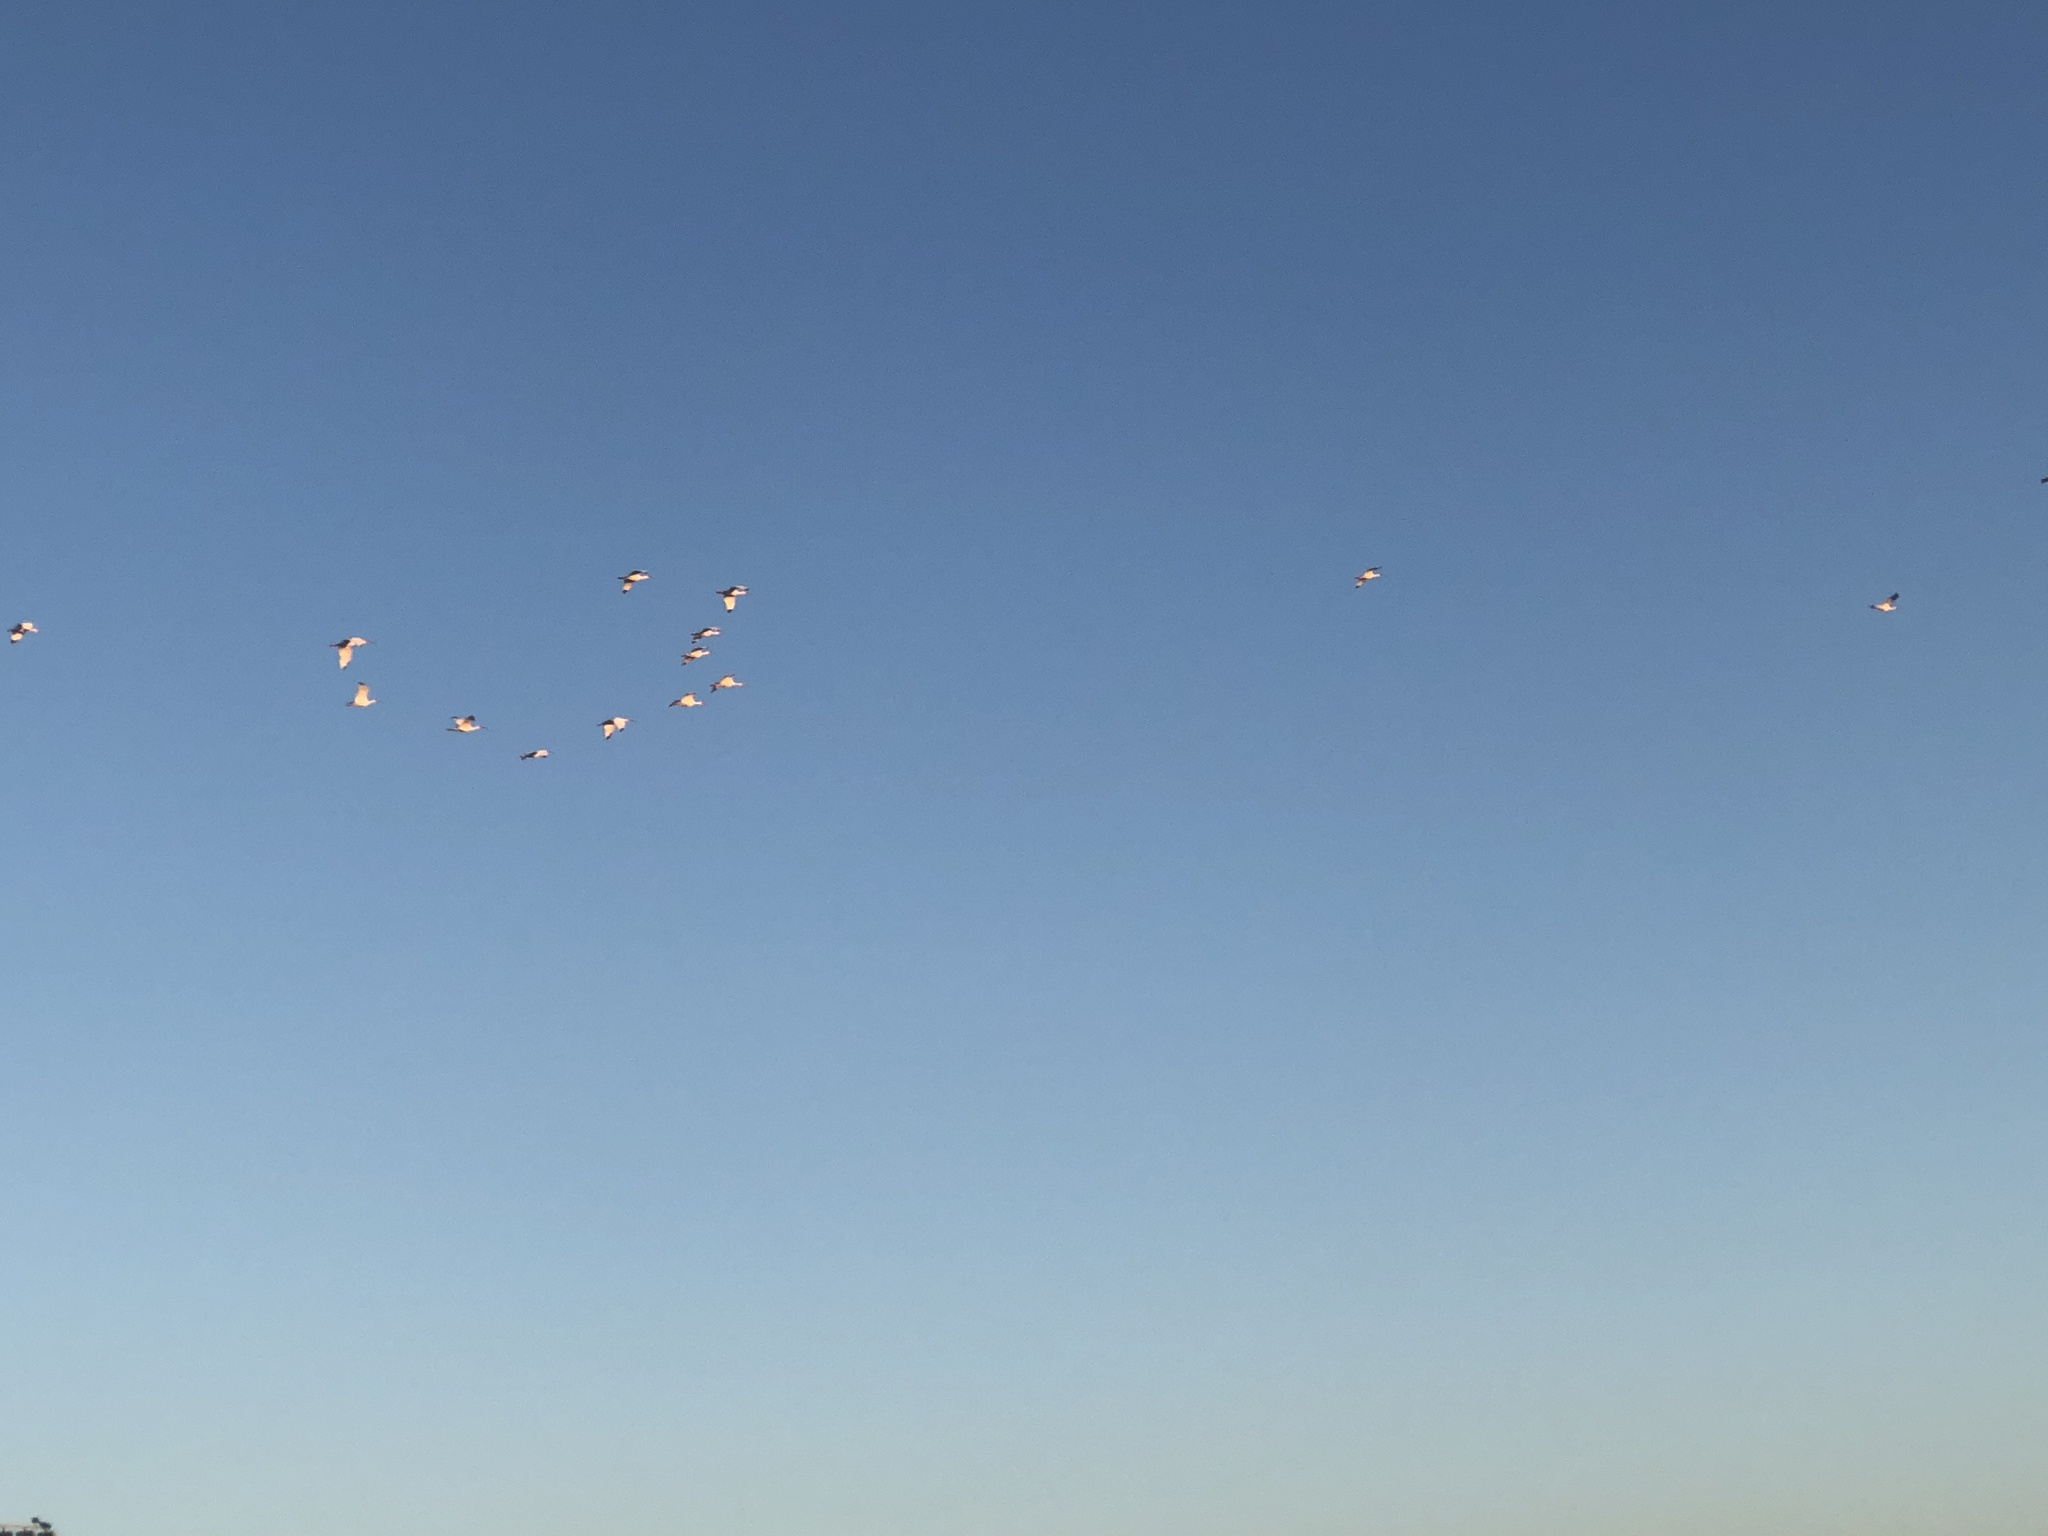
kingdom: Animalia
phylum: Chordata
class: Aves
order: Pelecaniformes
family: Threskiornithidae
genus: Eudocimus
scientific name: Eudocimus albus
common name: White ibis
